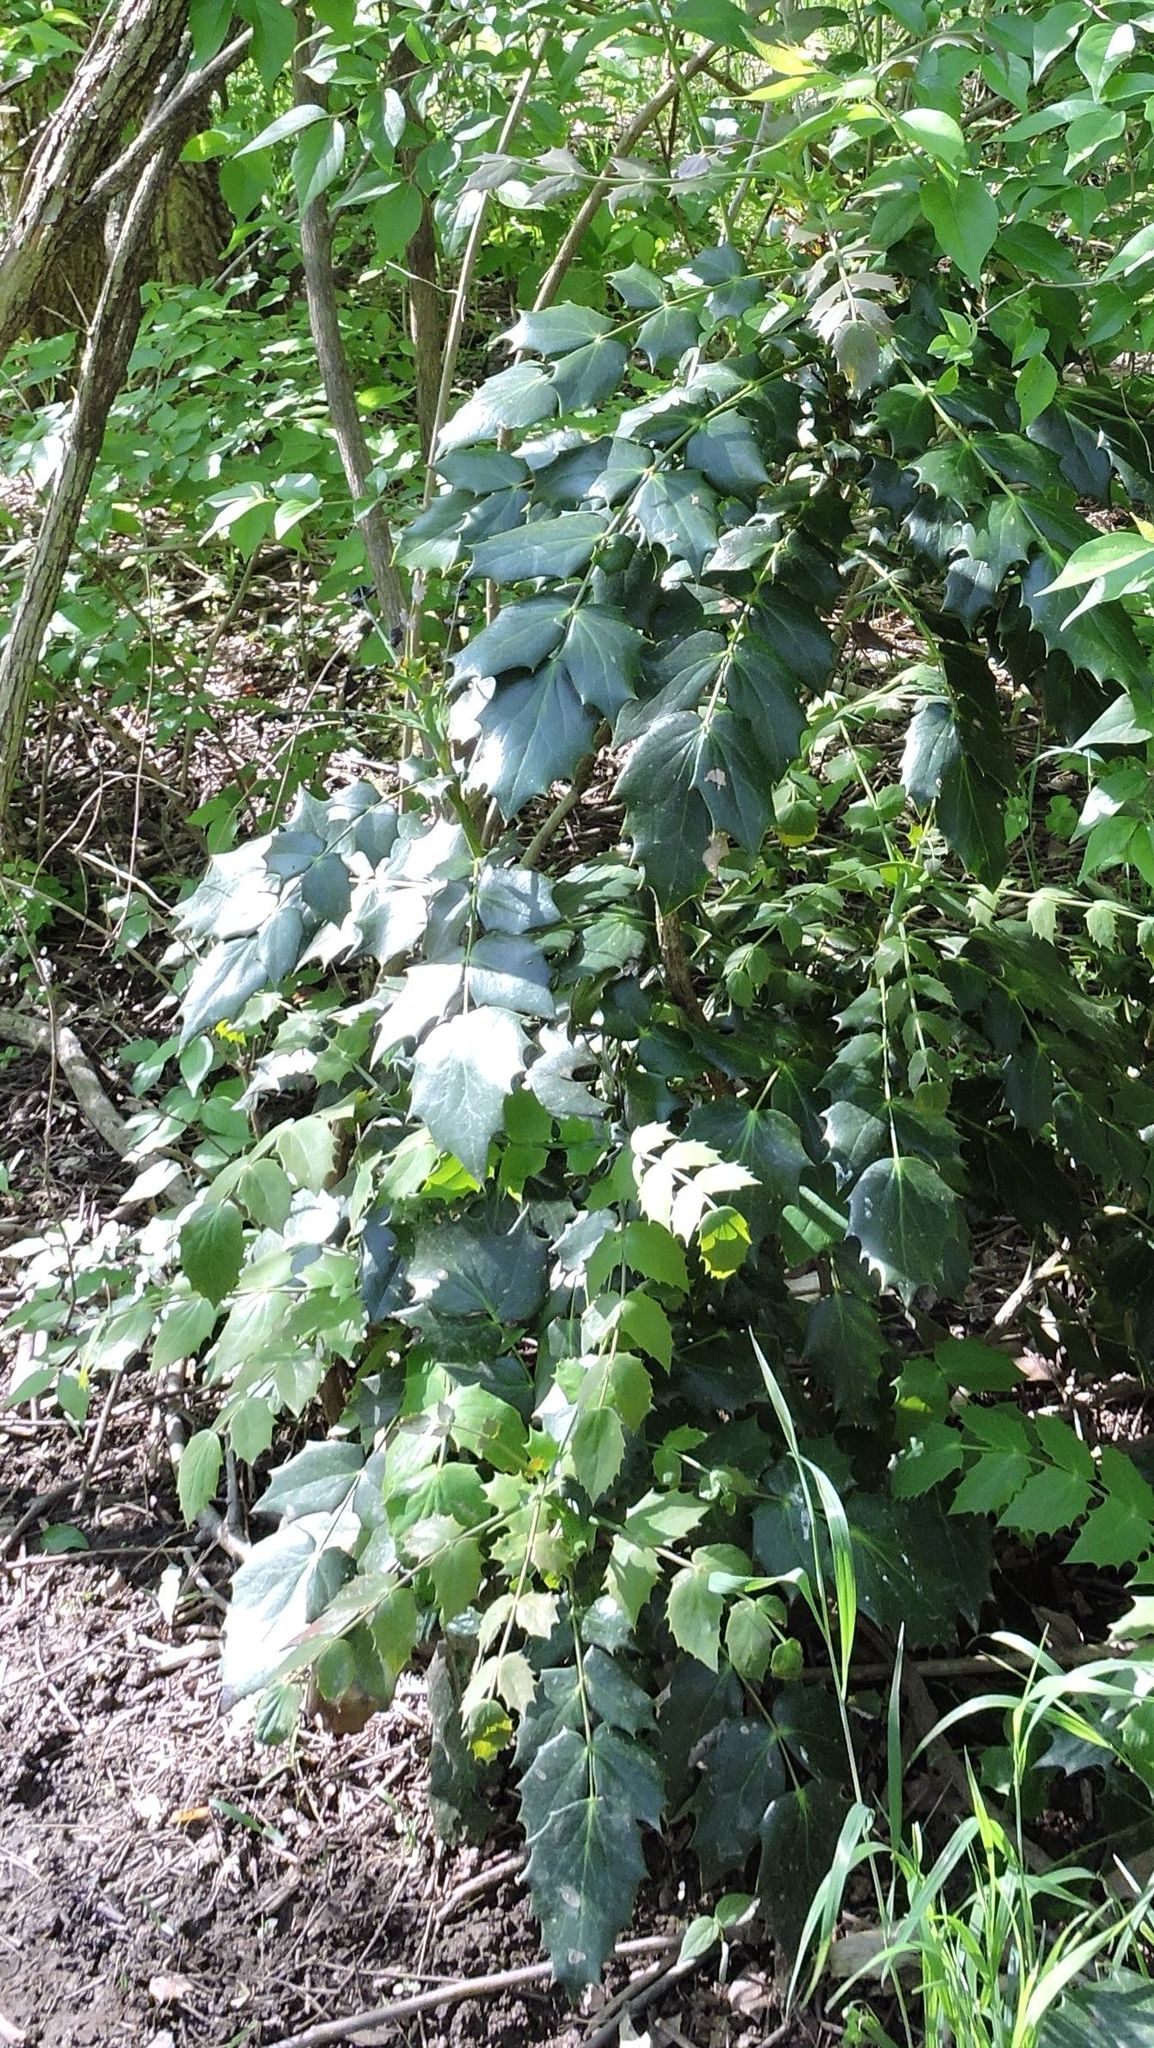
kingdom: Plantae
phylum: Tracheophyta
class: Magnoliopsida
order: Ranunculales
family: Berberidaceae
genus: Mahonia
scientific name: Mahonia bealei
